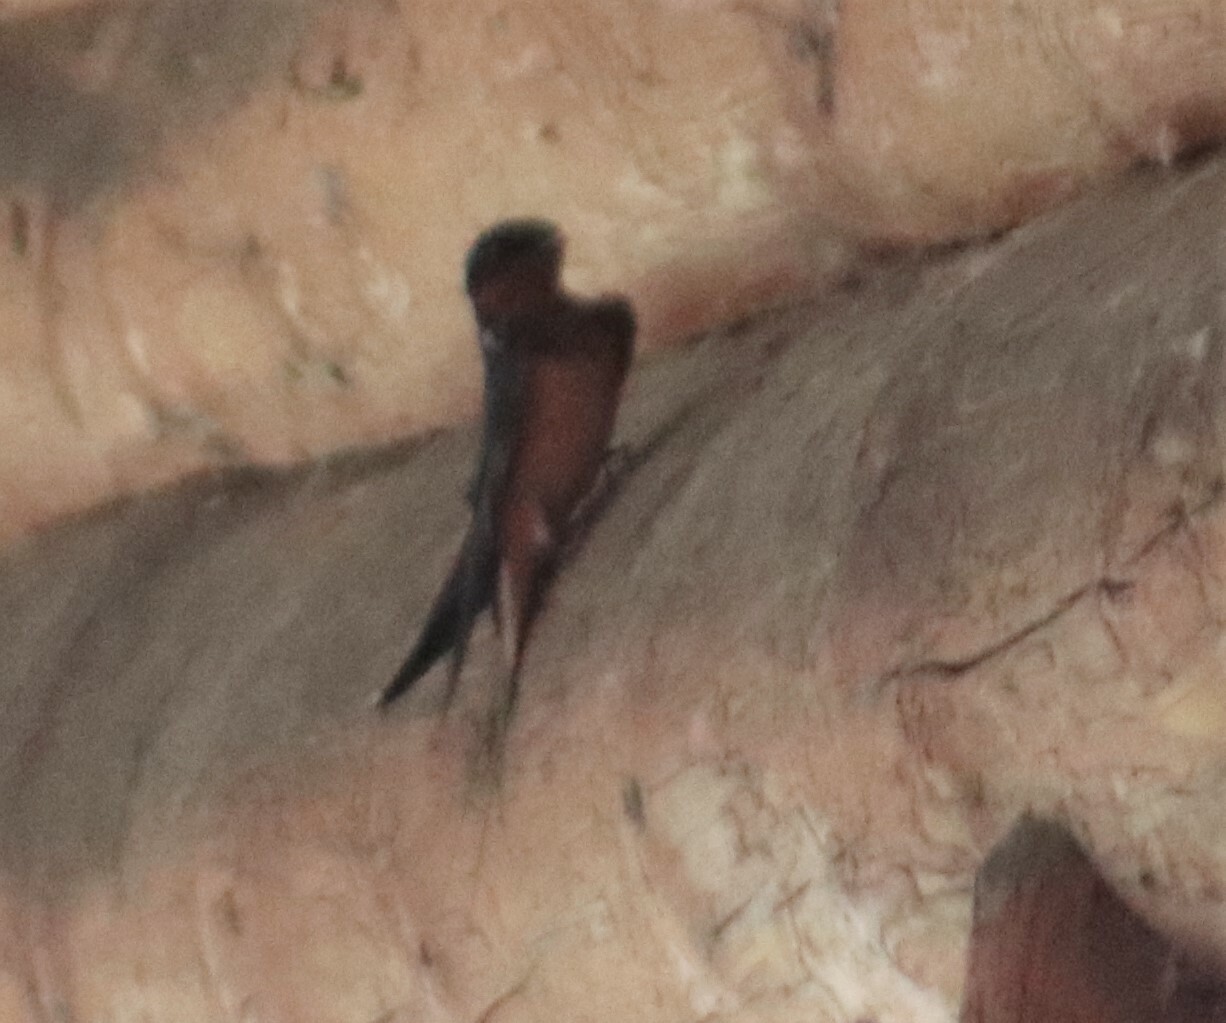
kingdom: Animalia
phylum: Chordata
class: Aves
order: Passeriformes
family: Hirundinidae
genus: Hirundo
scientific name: Hirundo rustica
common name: Barn swallow
